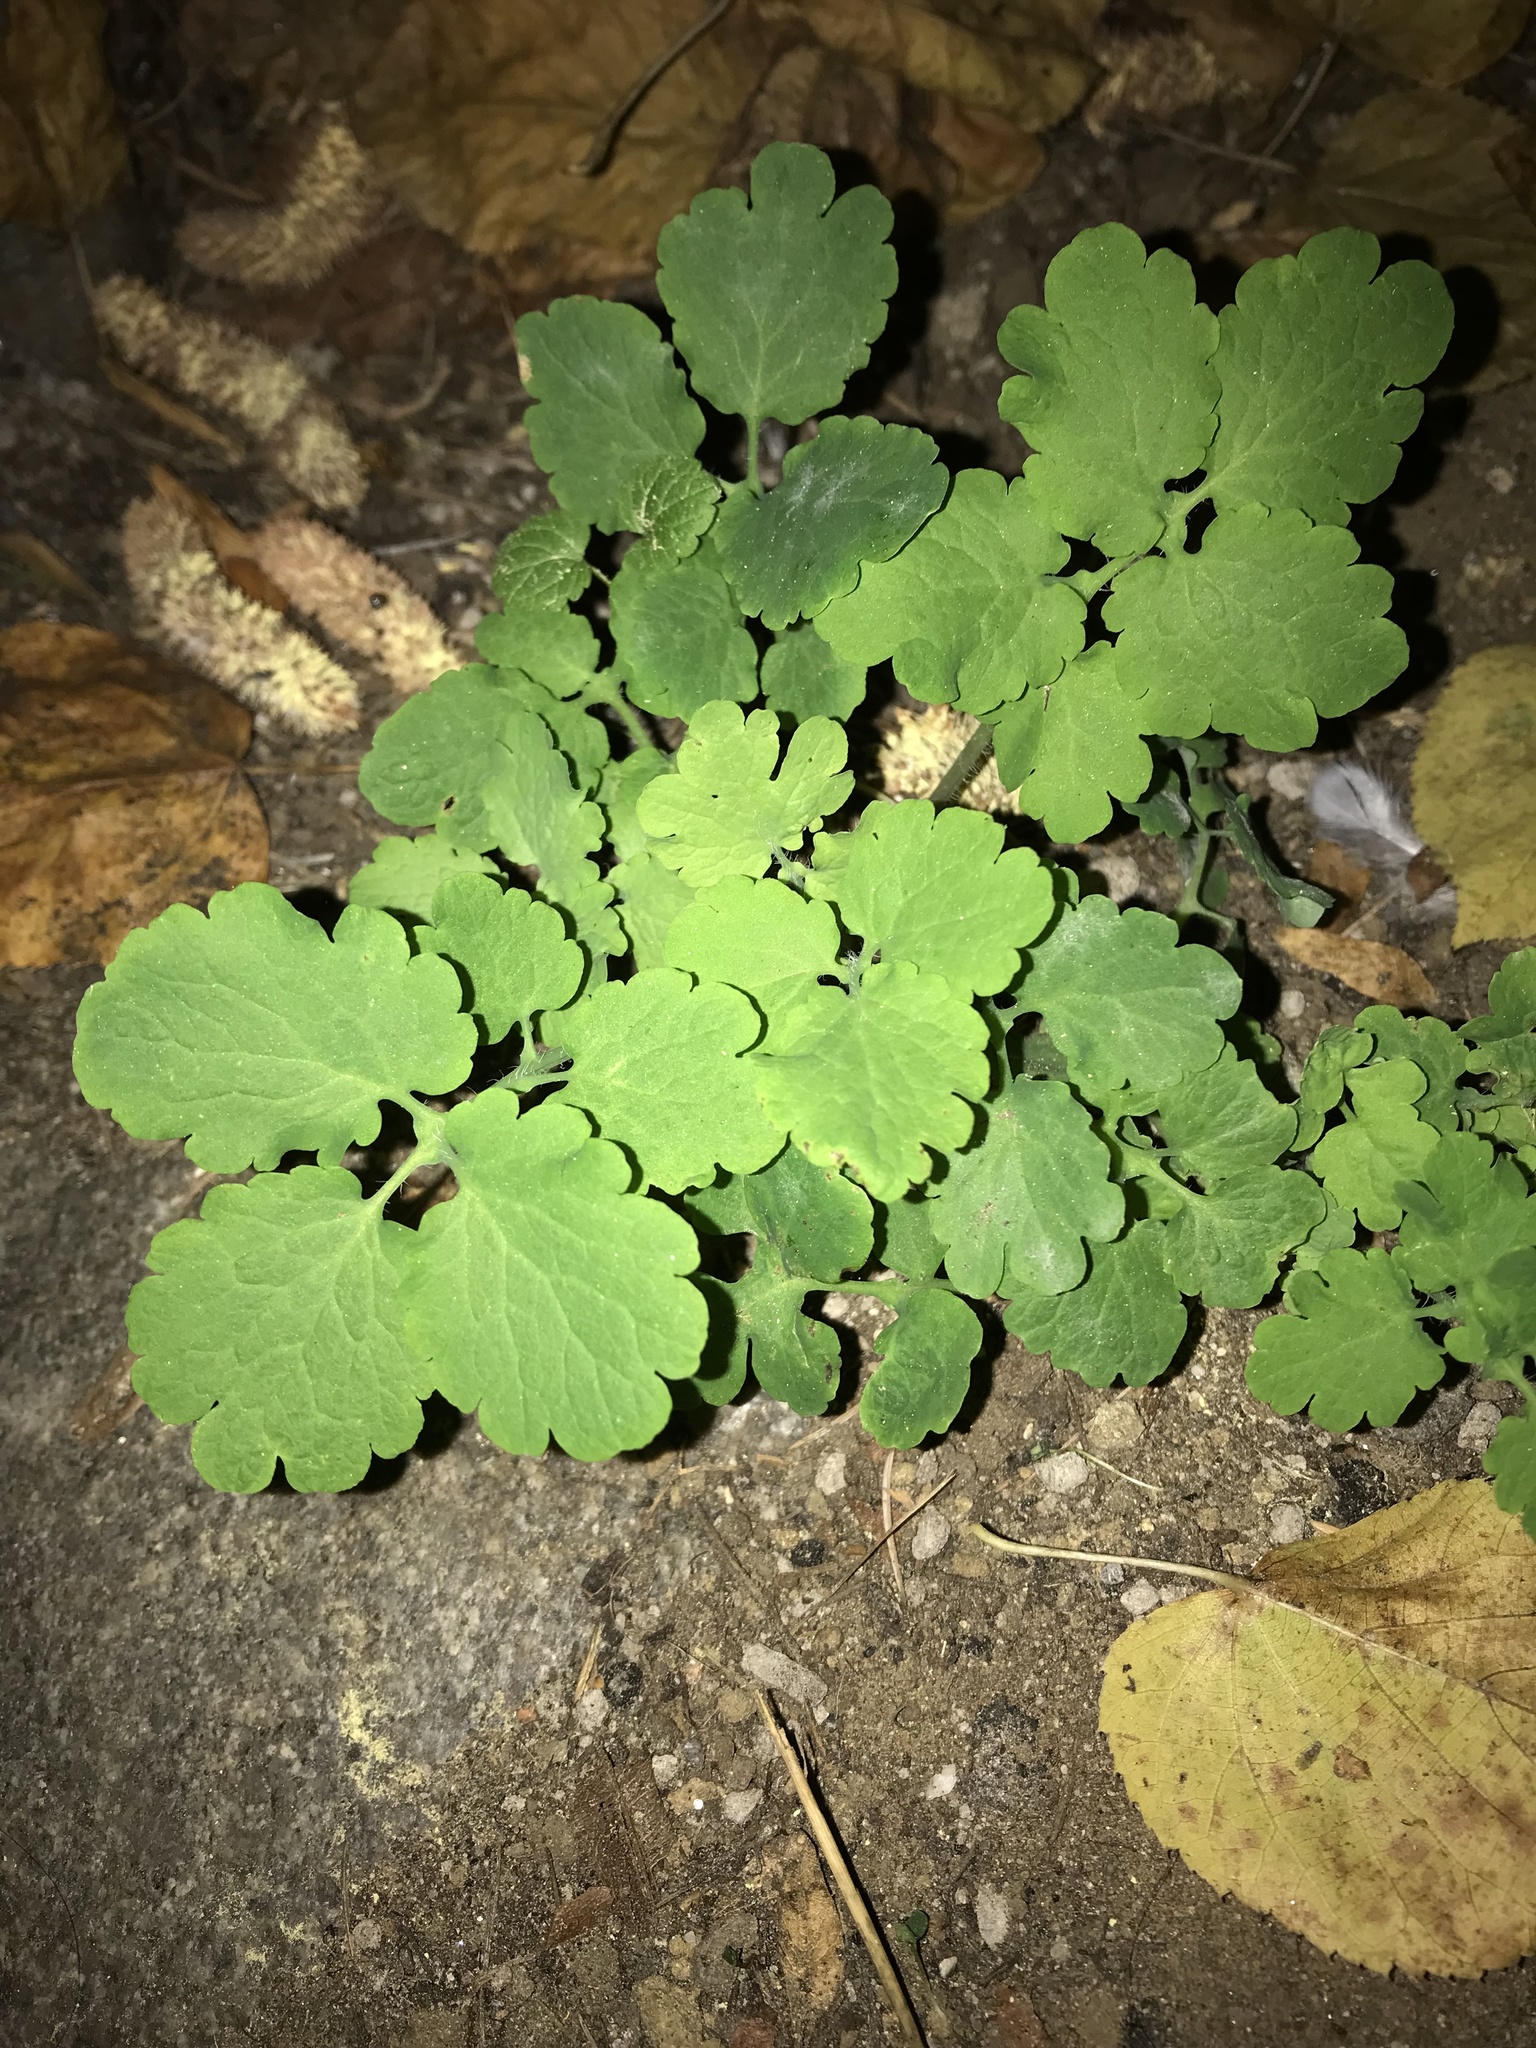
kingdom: Plantae
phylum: Tracheophyta
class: Magnoliopsida
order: Ranunculales
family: Papaveraceae
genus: Chelidonium
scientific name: Chelidonium majus
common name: Greater celandine
